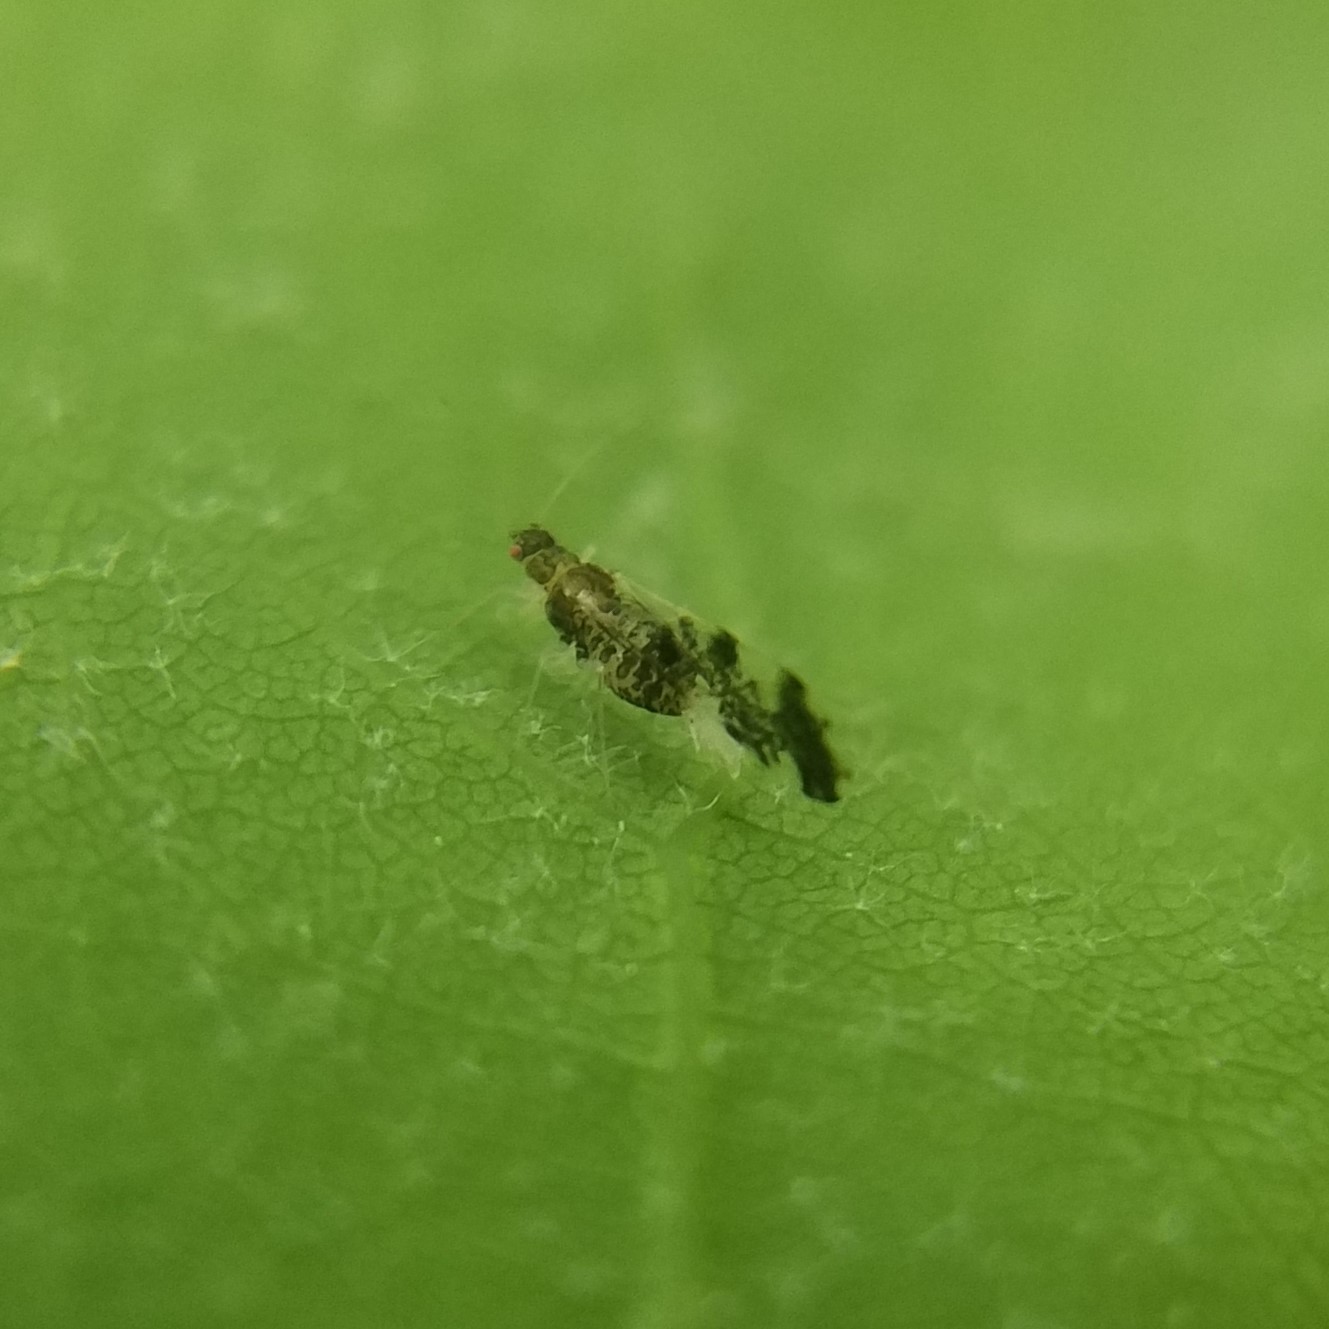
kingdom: Animalia
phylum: Arthropoda
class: Insecta
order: Hemiptera
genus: Neomyzocallis
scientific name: Neomyzocallis
